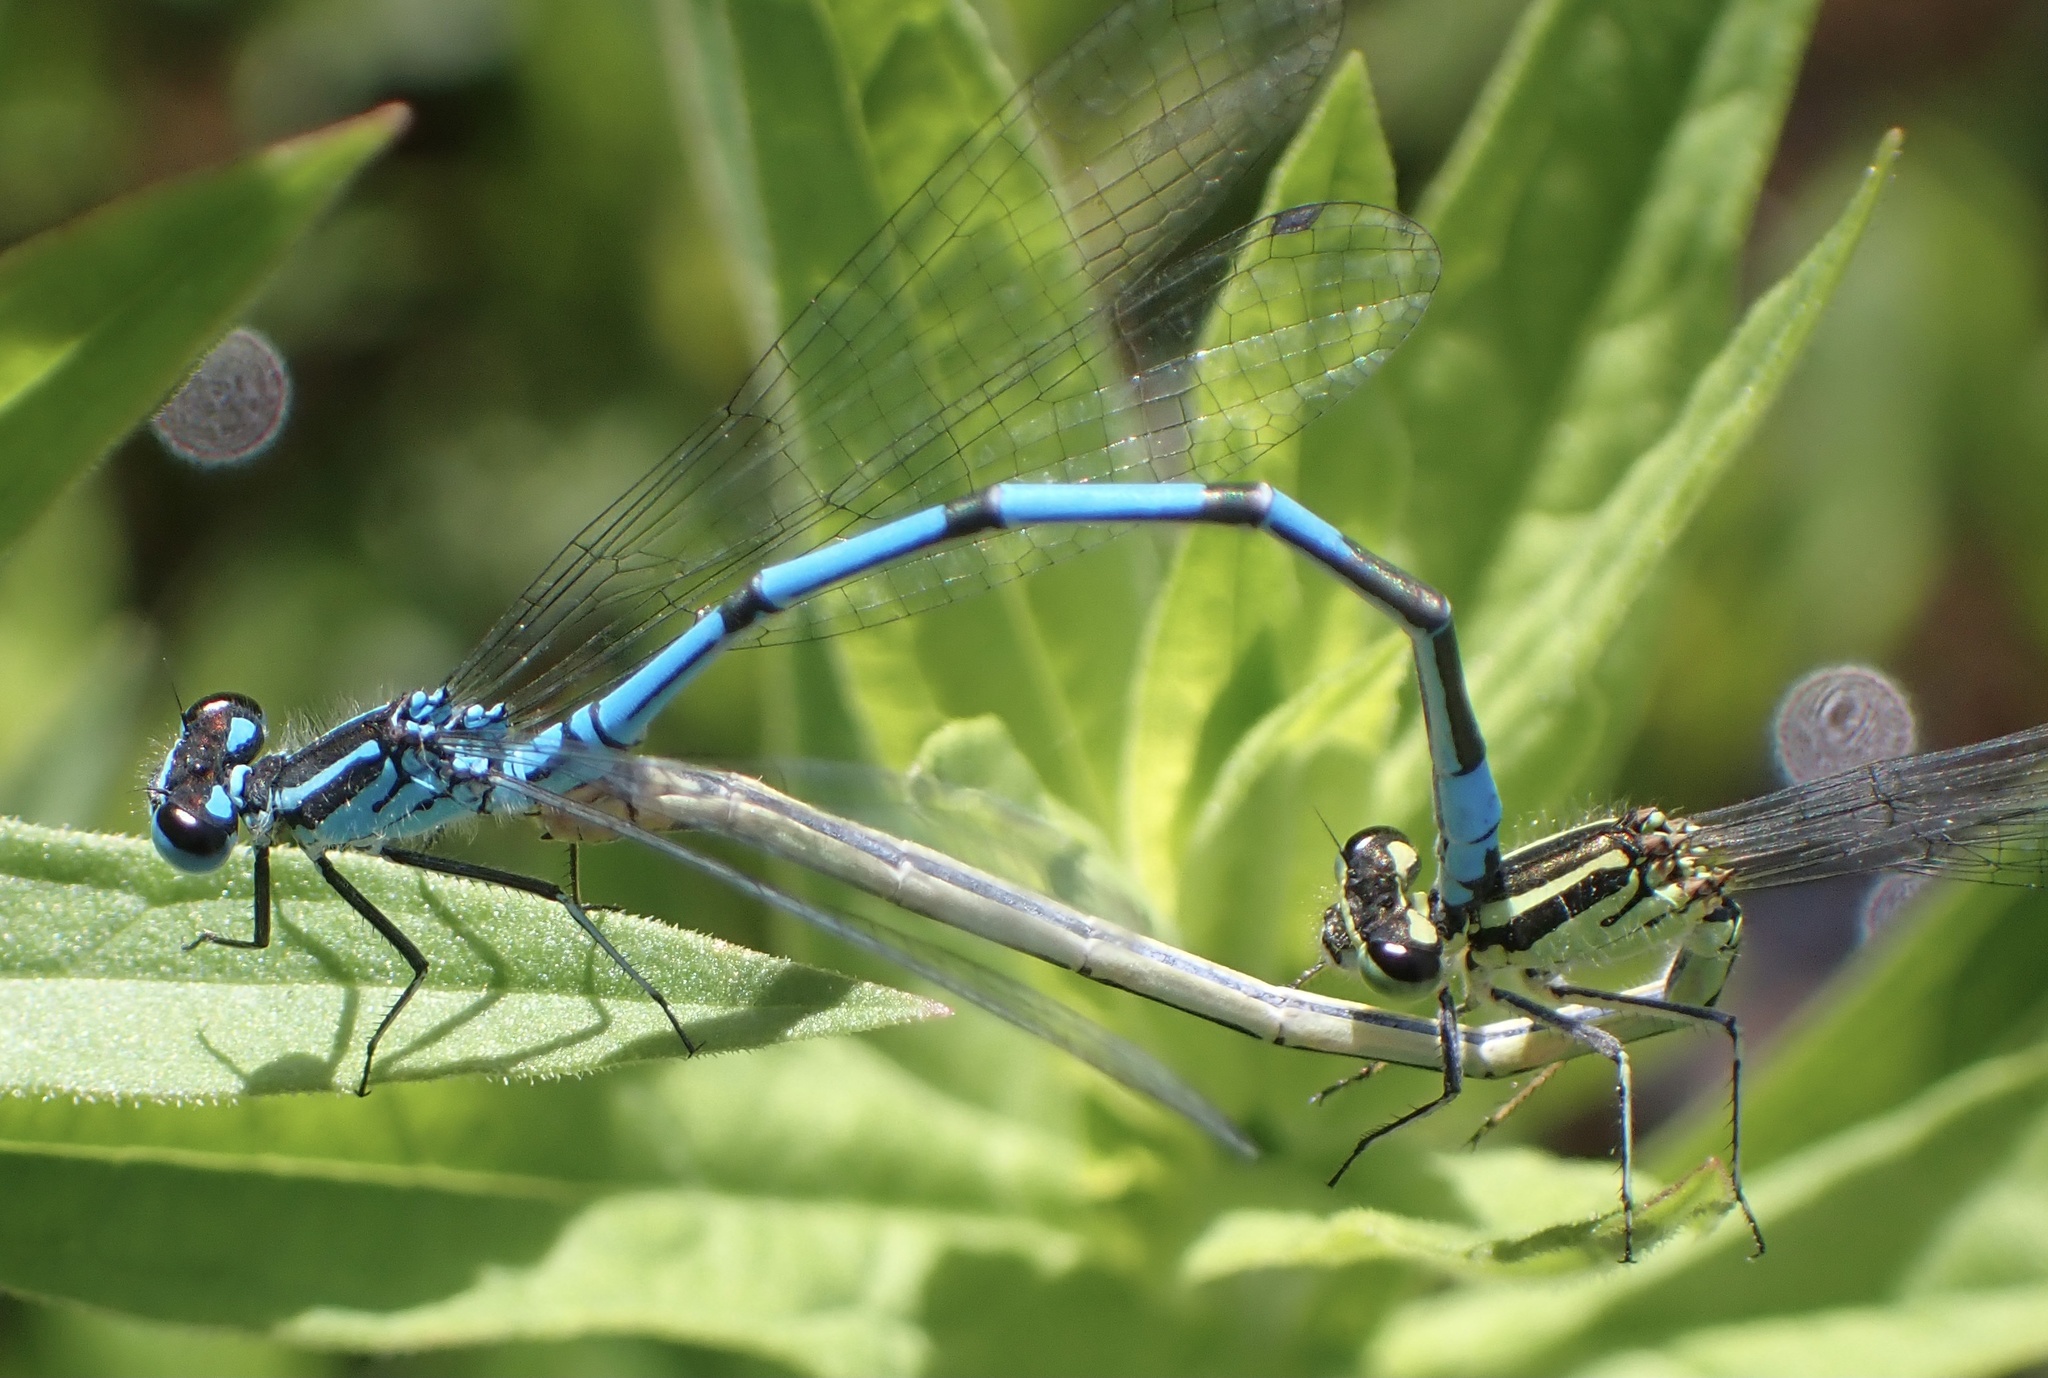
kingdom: Animalia
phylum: Arthropoda
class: Insecta
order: Odonata
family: Coenagrionidae
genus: Coenagrion
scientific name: Coenagrion puella
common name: Azure damselfly
